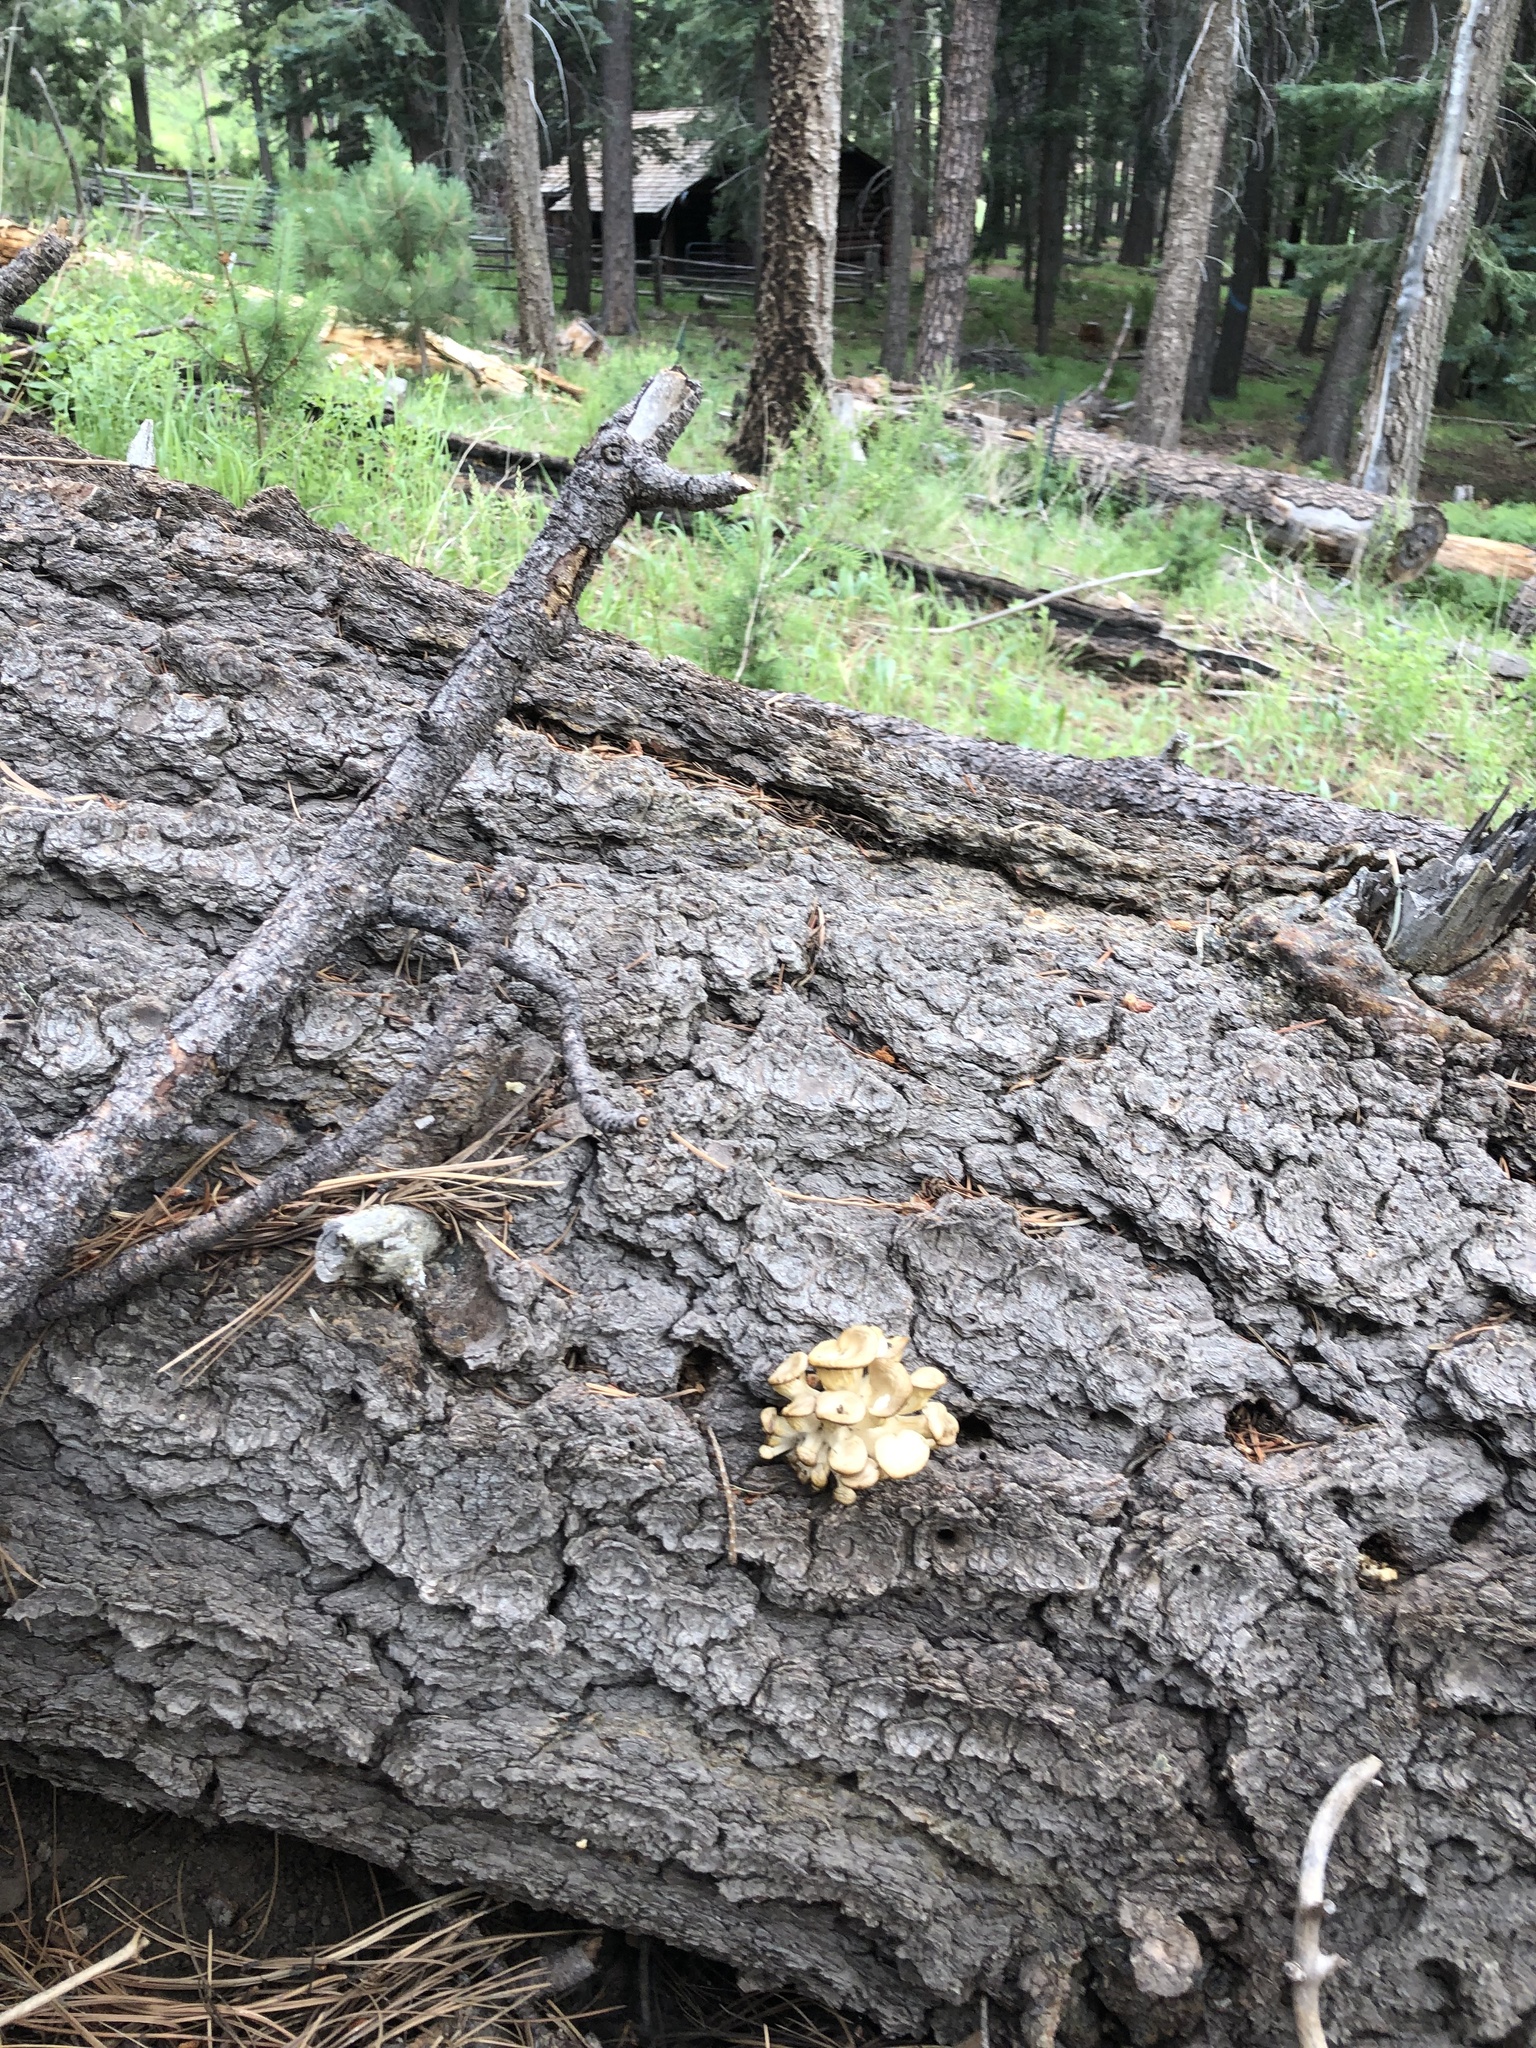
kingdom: Fungi
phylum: Basidiomycota
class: Agaricomycetes
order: Agaricales
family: Pleurotaceae
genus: Pleurotus
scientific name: Pleurotus pulmonarius
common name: Pale oyster
